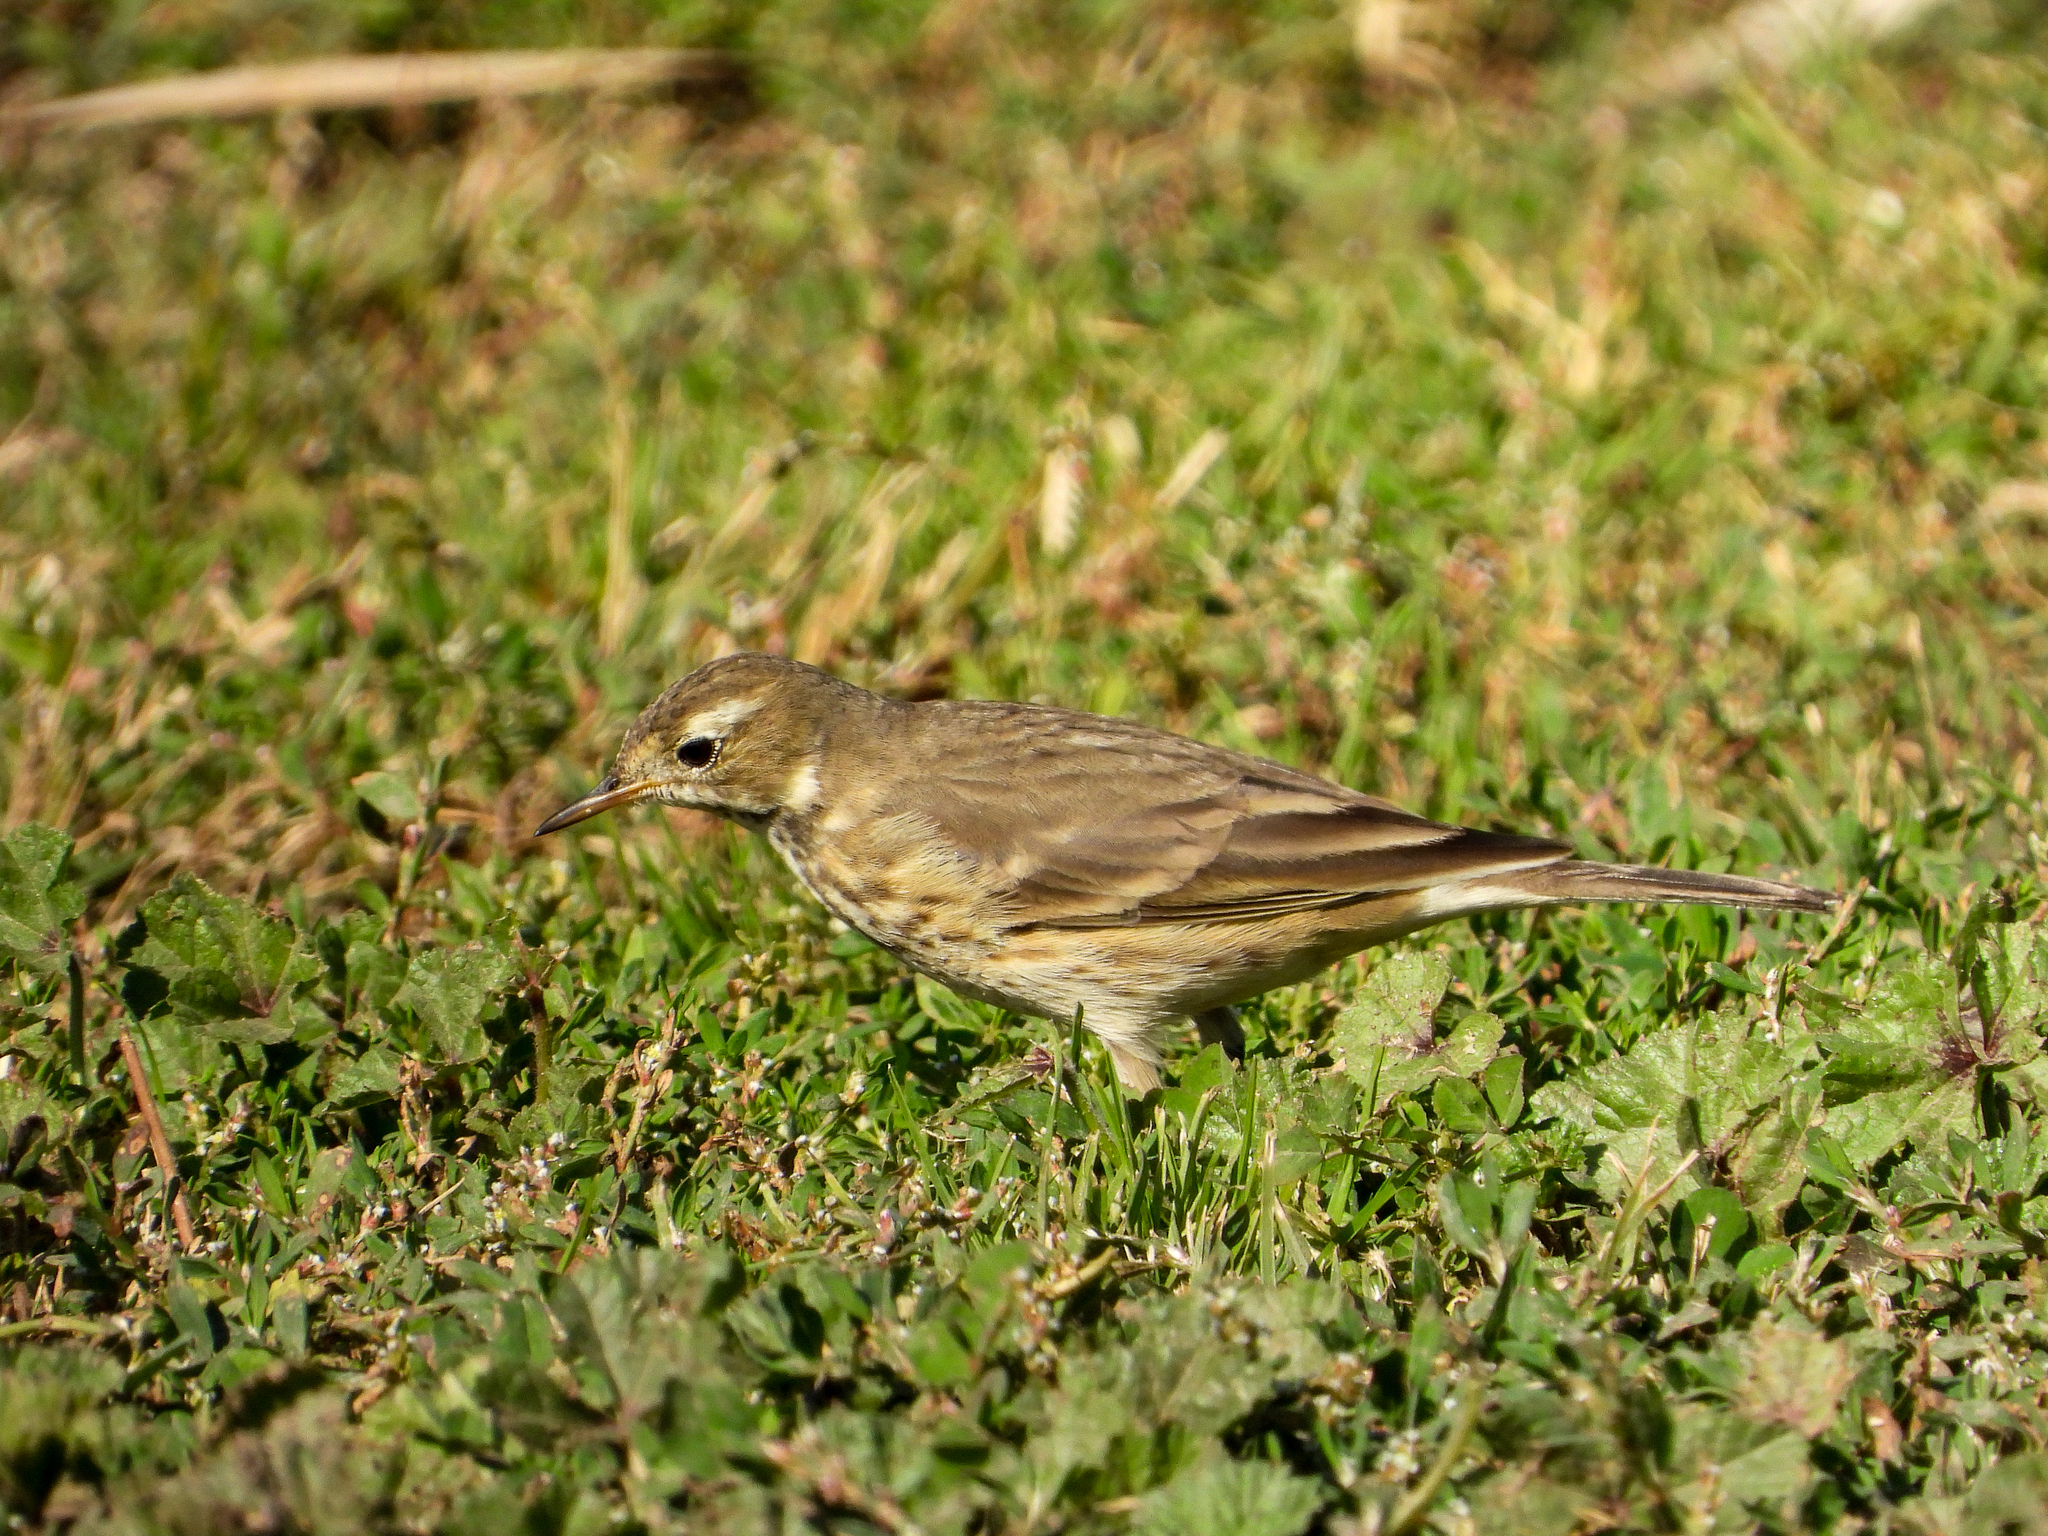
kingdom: Animalia
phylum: Chordata
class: Aves
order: Passeriformes
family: Motacillidae
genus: Anthus
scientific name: Anthus rubescens
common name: Buff-bellied pipit
